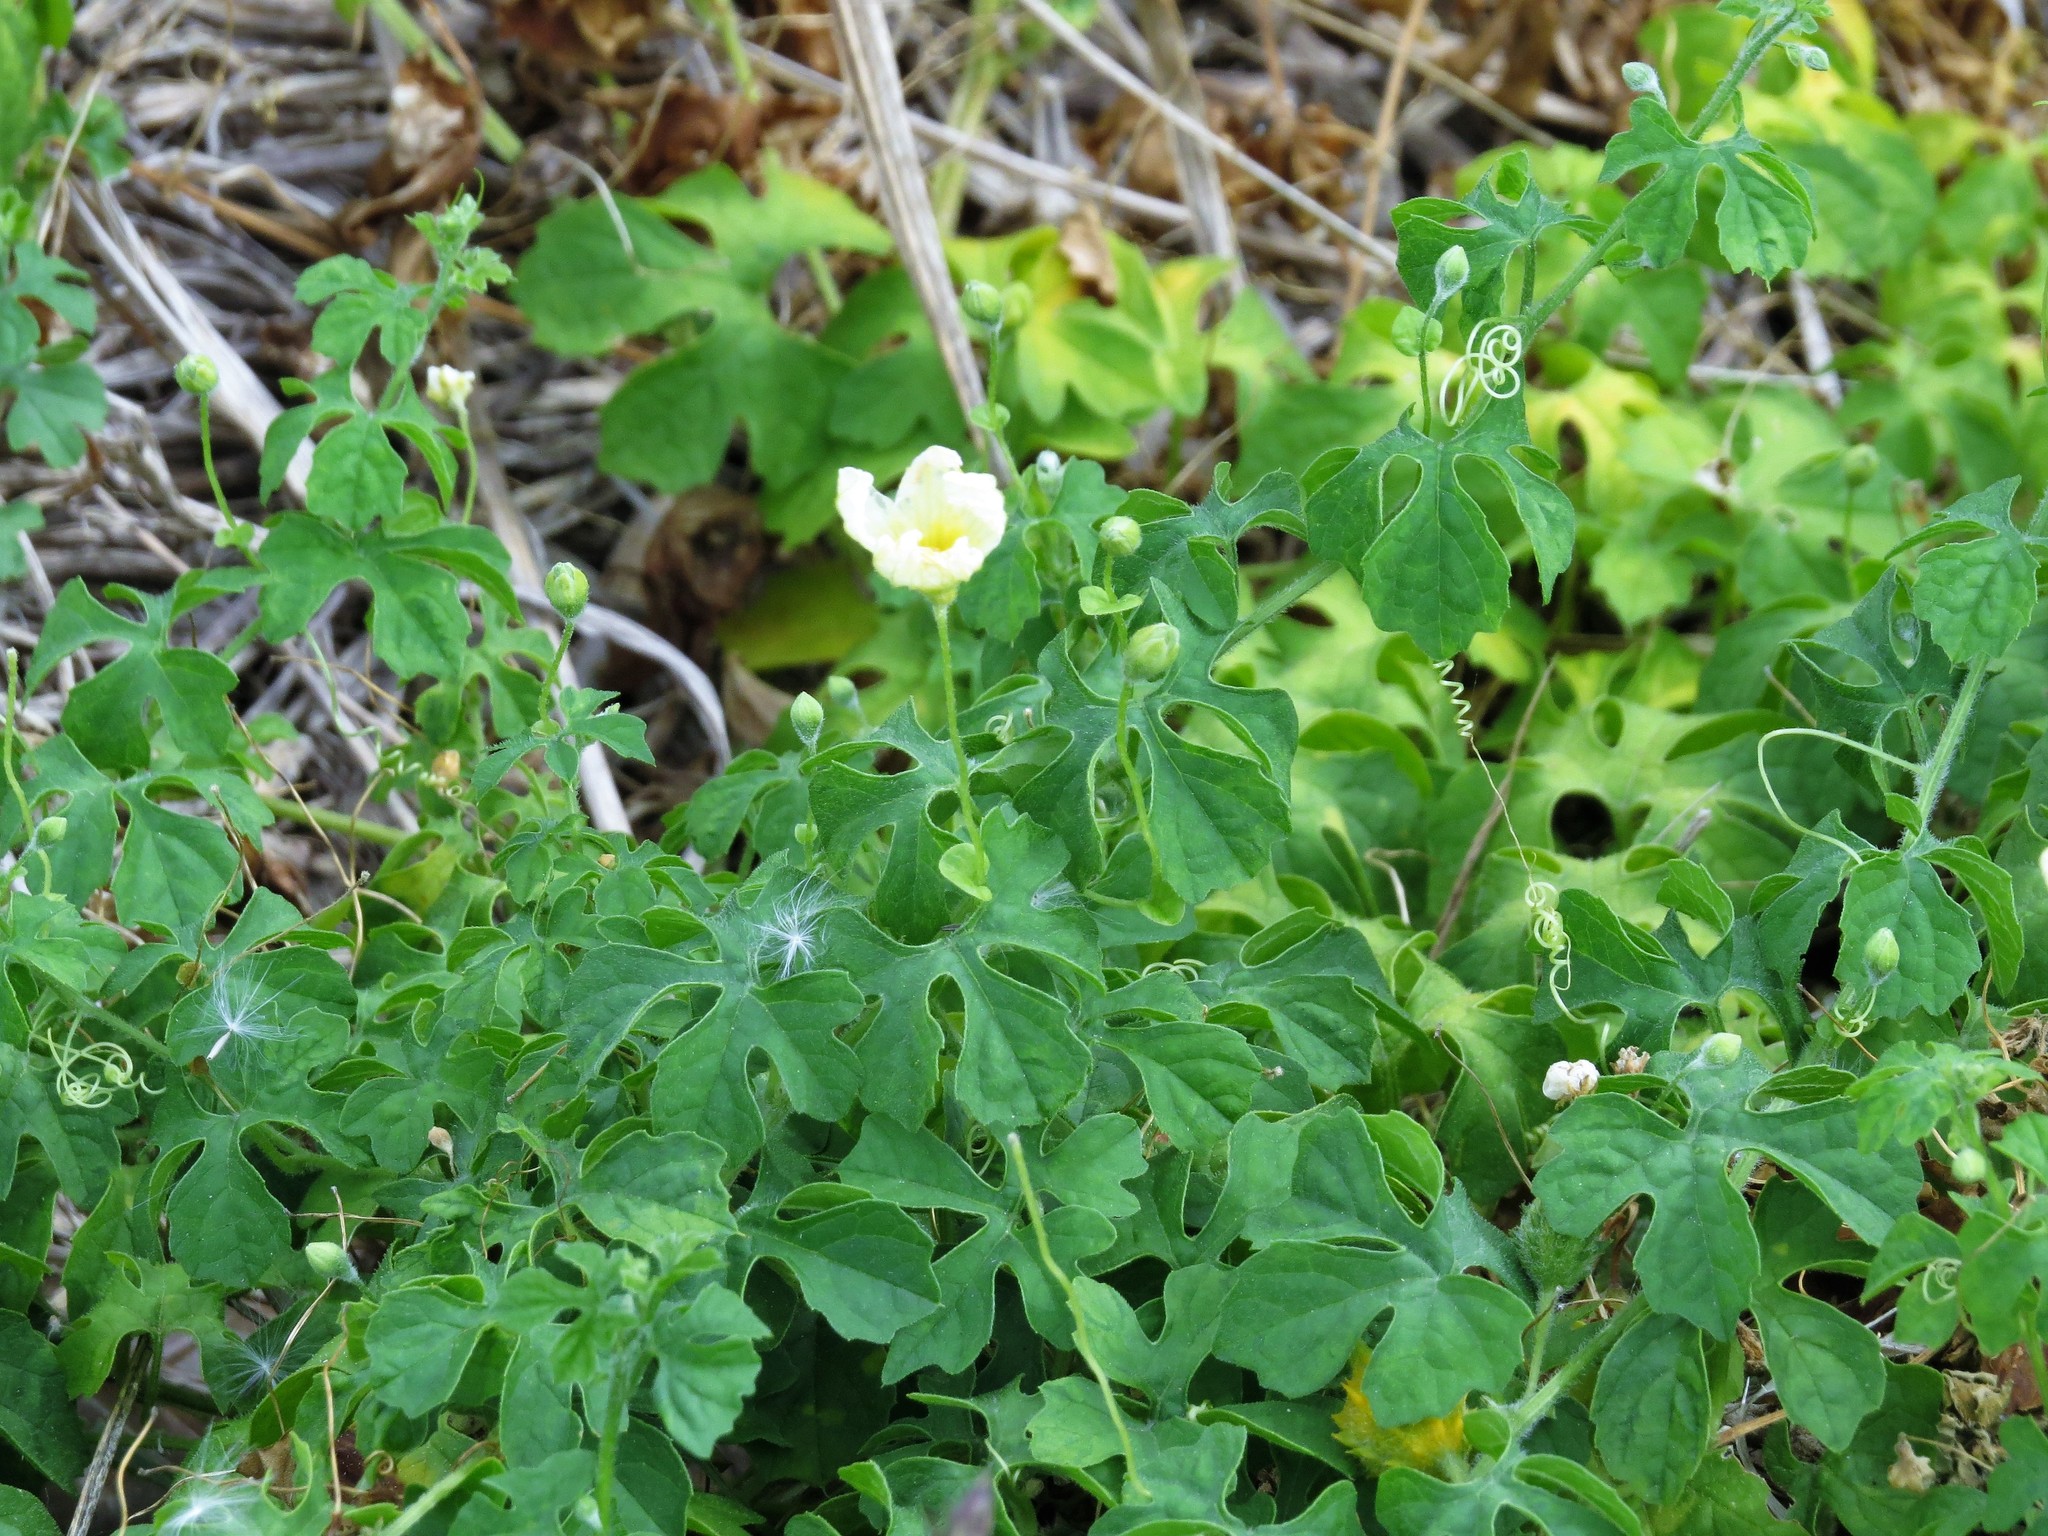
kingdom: Plantae
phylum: Tracheophyta
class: Magnoliopsida
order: Cucurbitales
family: Cucurbitaceae
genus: Momordica
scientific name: Momordica charantia
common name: Balsampear
